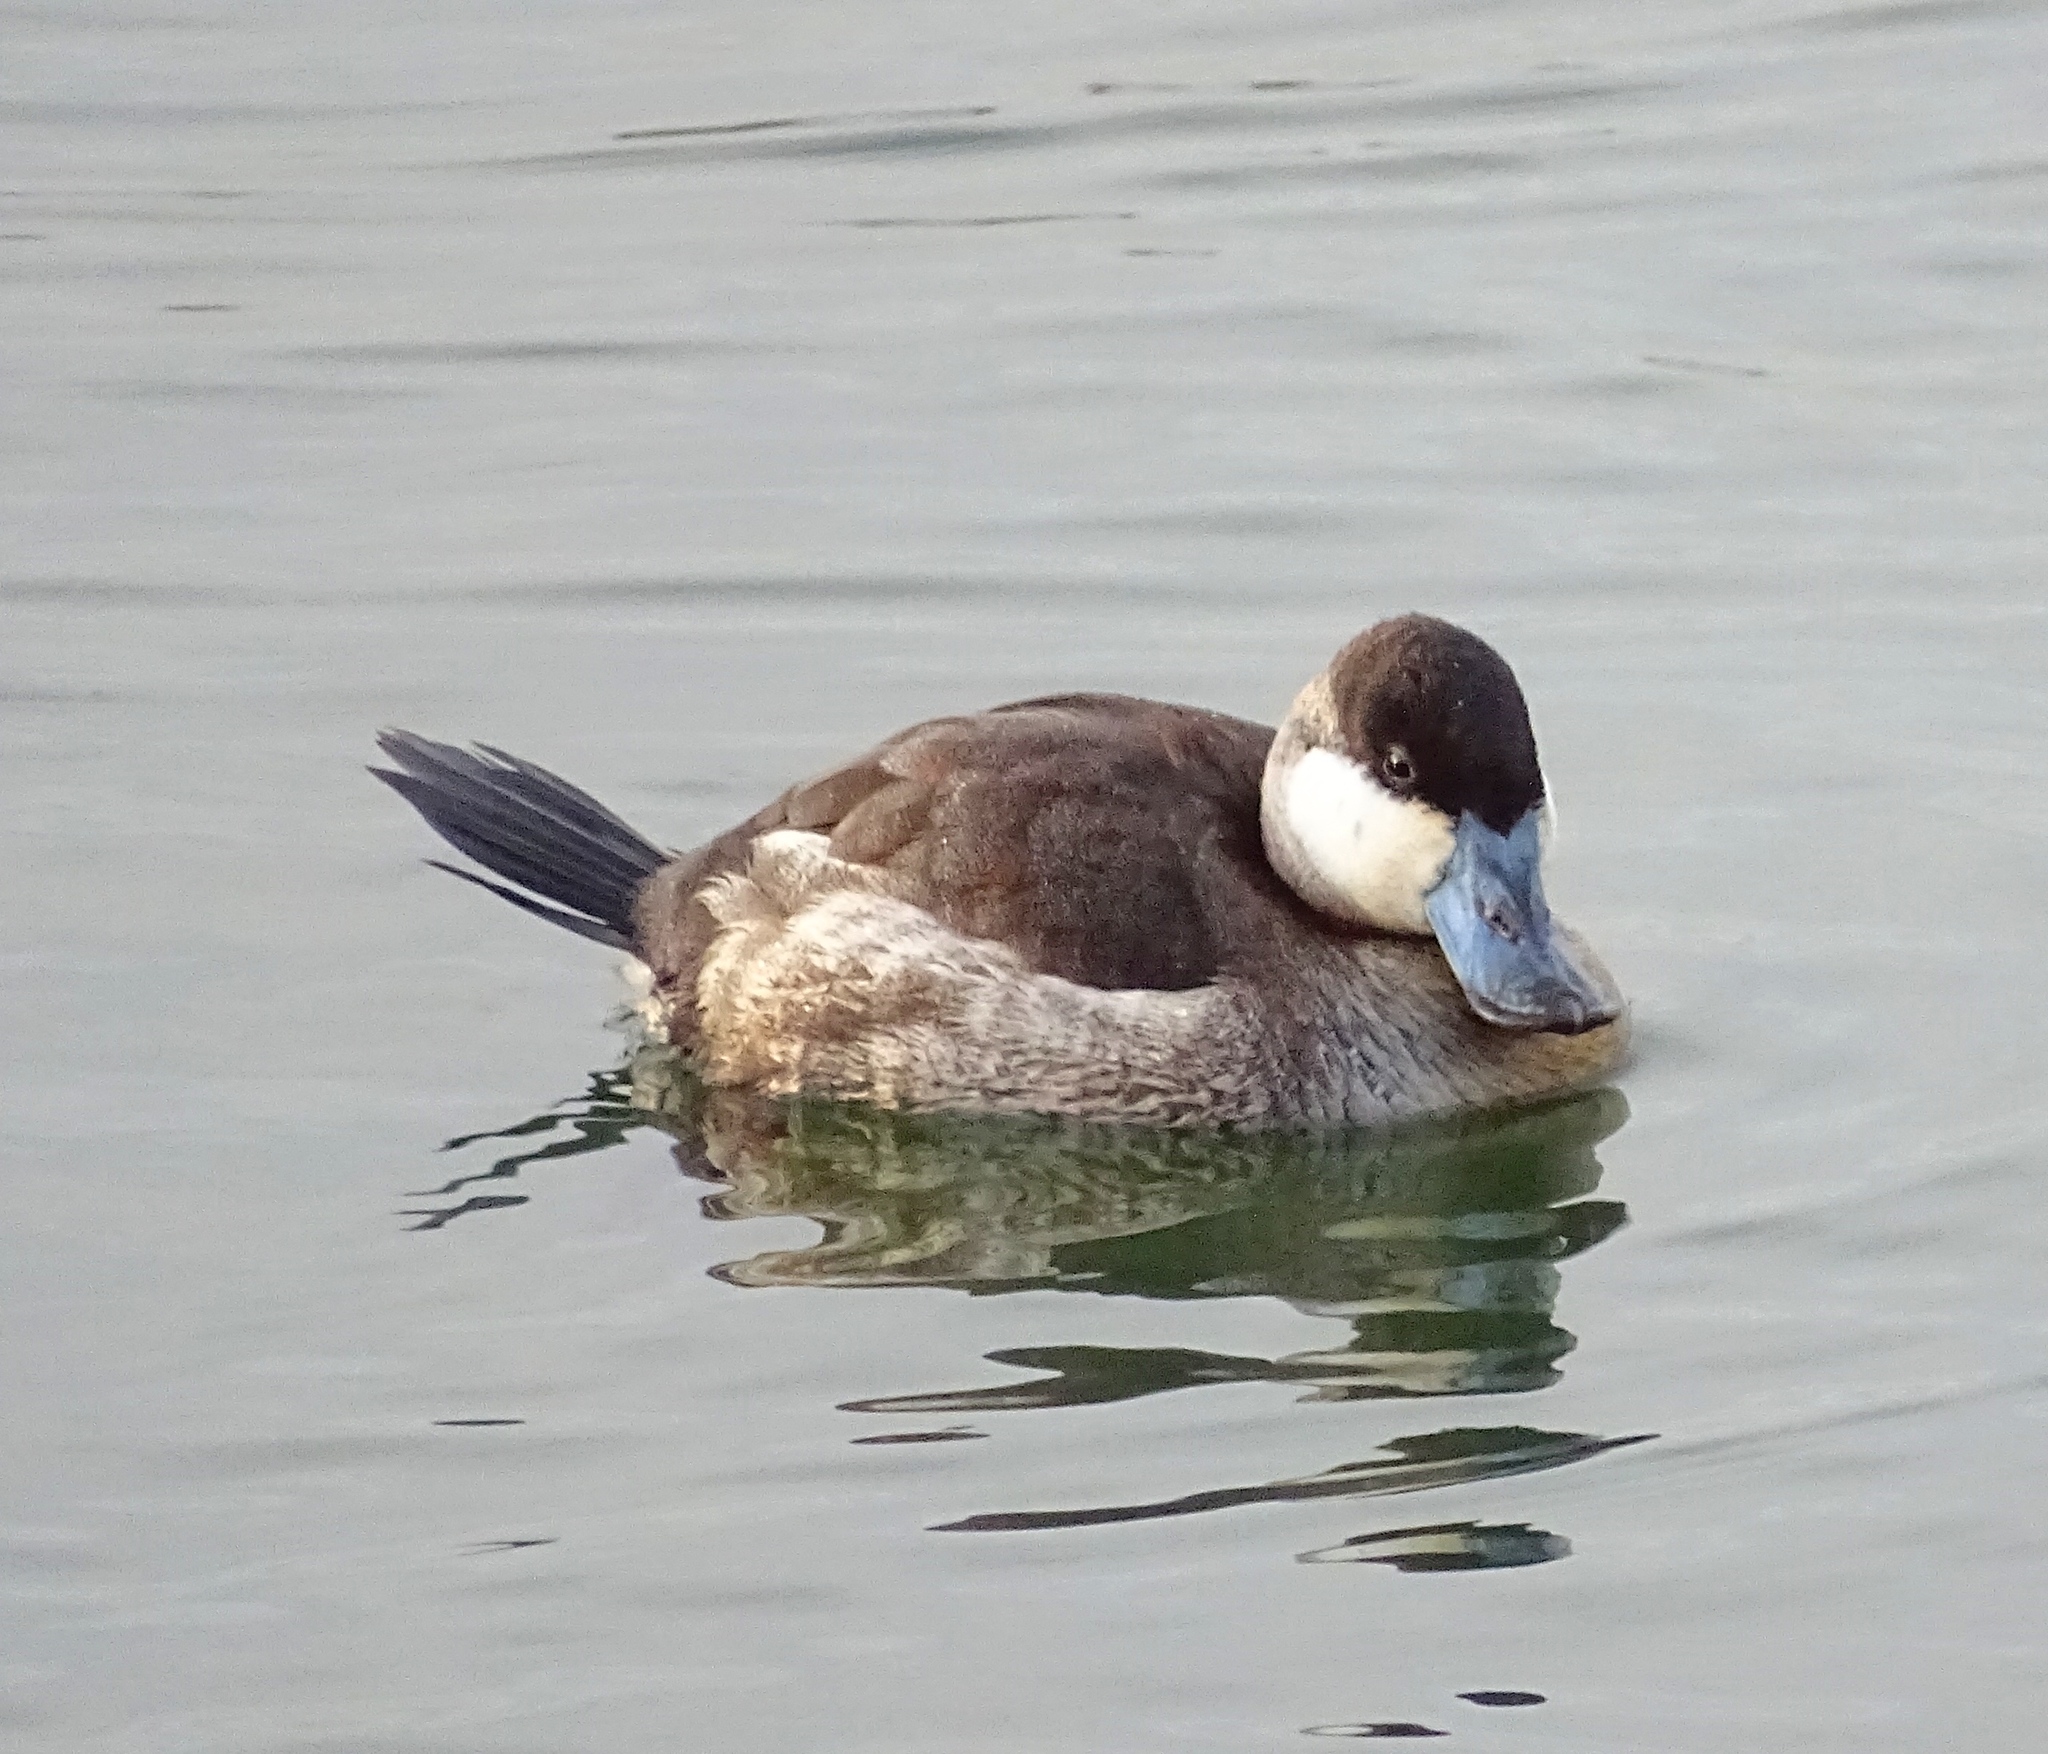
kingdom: Animalia
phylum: Chordata
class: Aves
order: Anseriformes
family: Anatidae
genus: Oxyura
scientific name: Oxyura jamaicensis
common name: Ruddy duck
